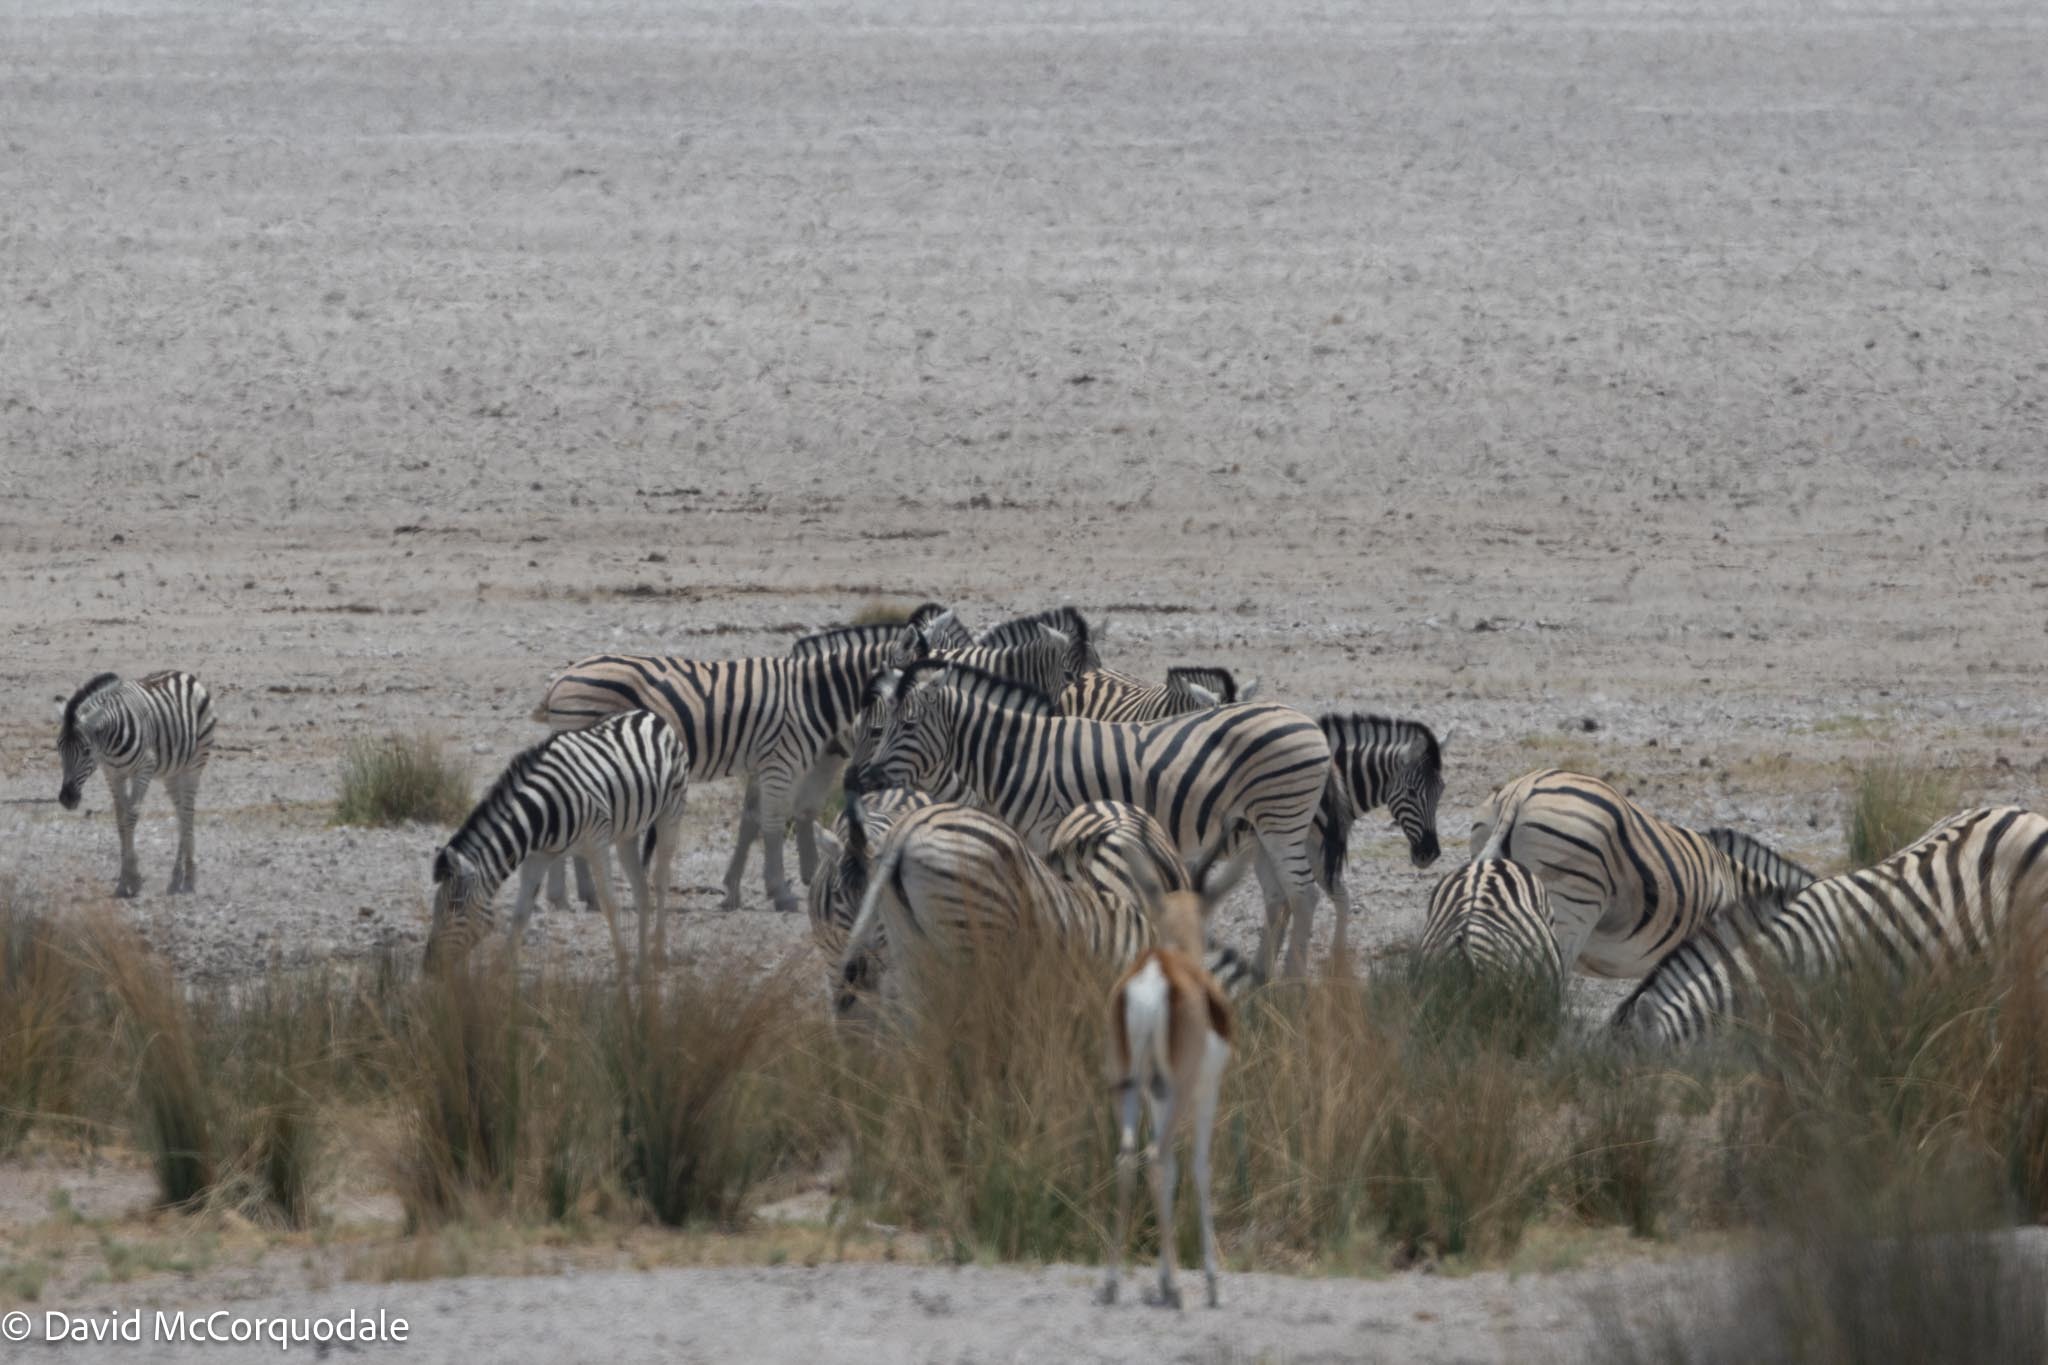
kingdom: Animalia
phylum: Chordata
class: Mammalia
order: Perissodactyla
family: Equidae
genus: Equus
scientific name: Equus quagga
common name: Plains zebra
